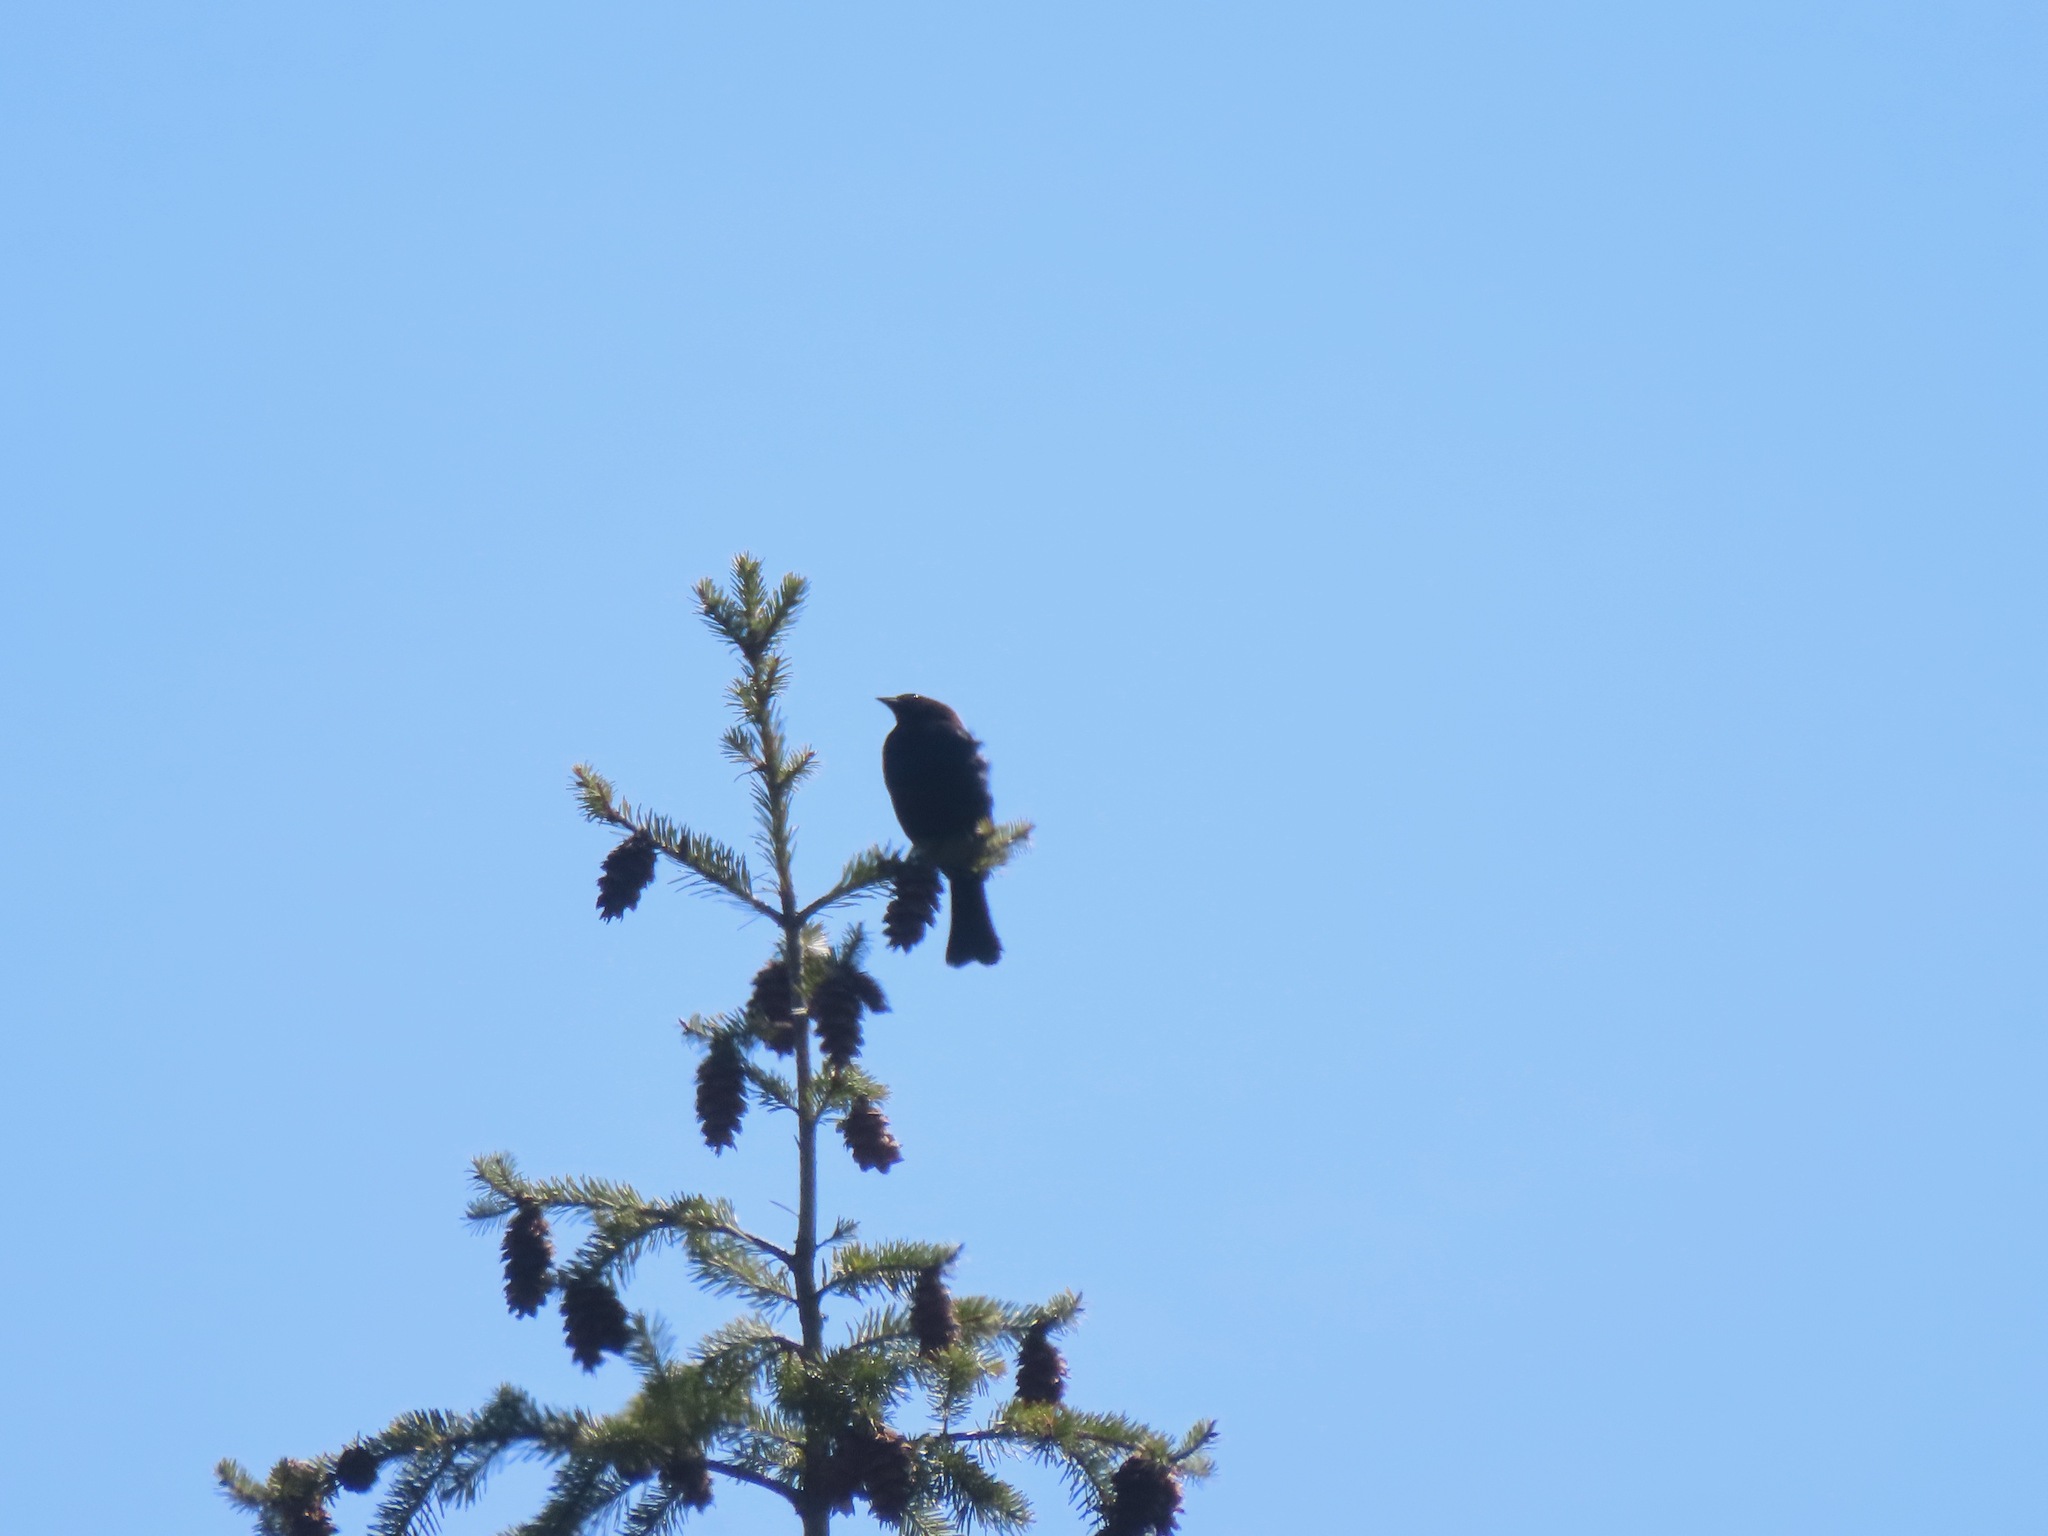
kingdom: Animalia
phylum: Chordata
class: Aves
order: Passeriformes
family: Icteridae
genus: Molothrus
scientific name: Molothrus ater
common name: Brown-headed cowbird
